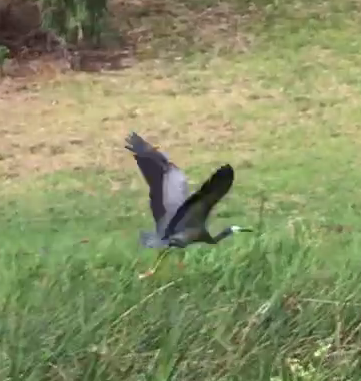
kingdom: Animalia
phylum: Chordata
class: Aves
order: Pelecaniformes
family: Ardeidae
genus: Egretta
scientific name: Egretta novaehollandiae
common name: White-faced heron
